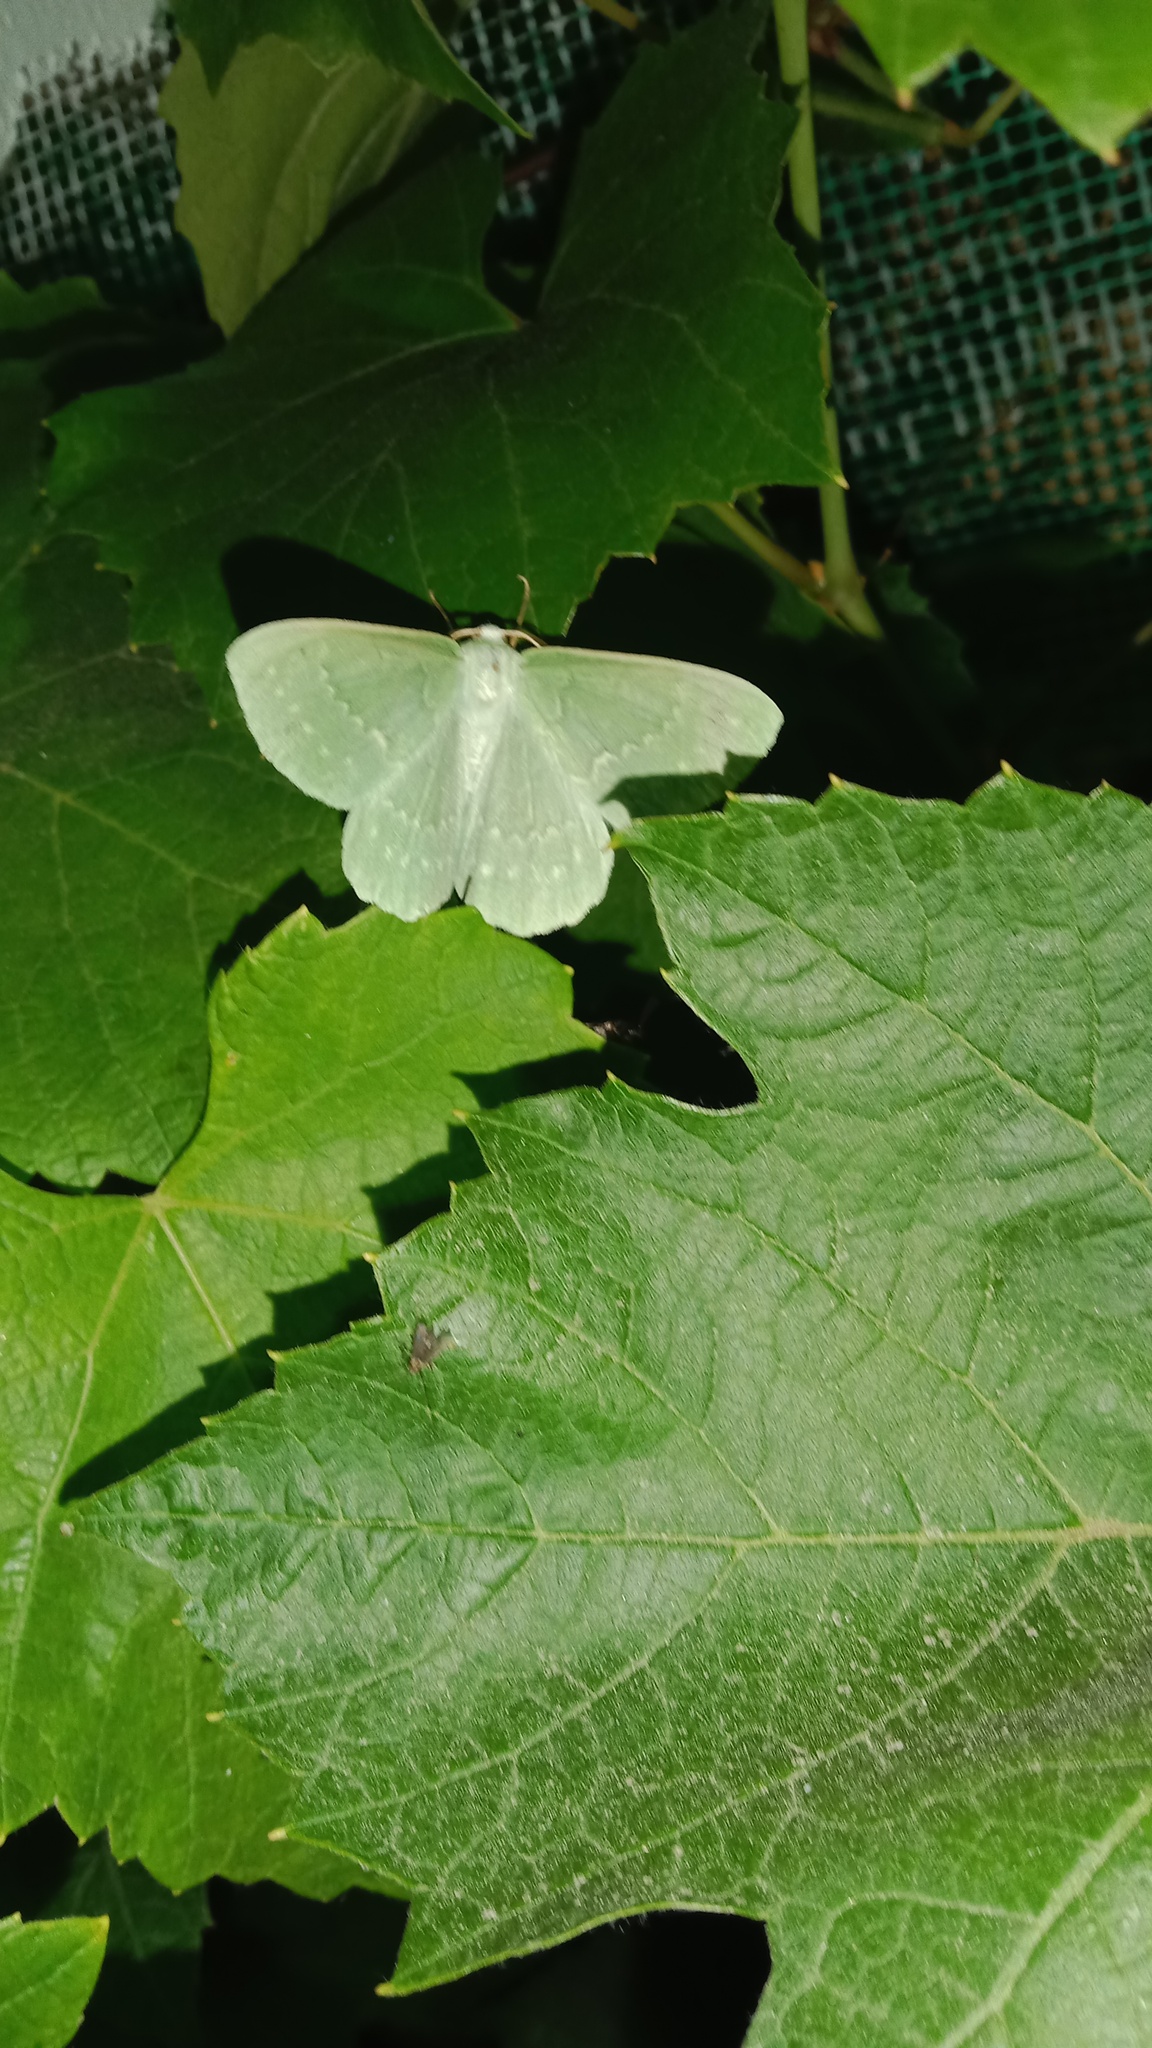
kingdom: Animalia
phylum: Arthropoda
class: Insecta
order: Lepidoptera
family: Geometridae
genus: Geometra
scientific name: Geometra papilionaria
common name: Large emerald
